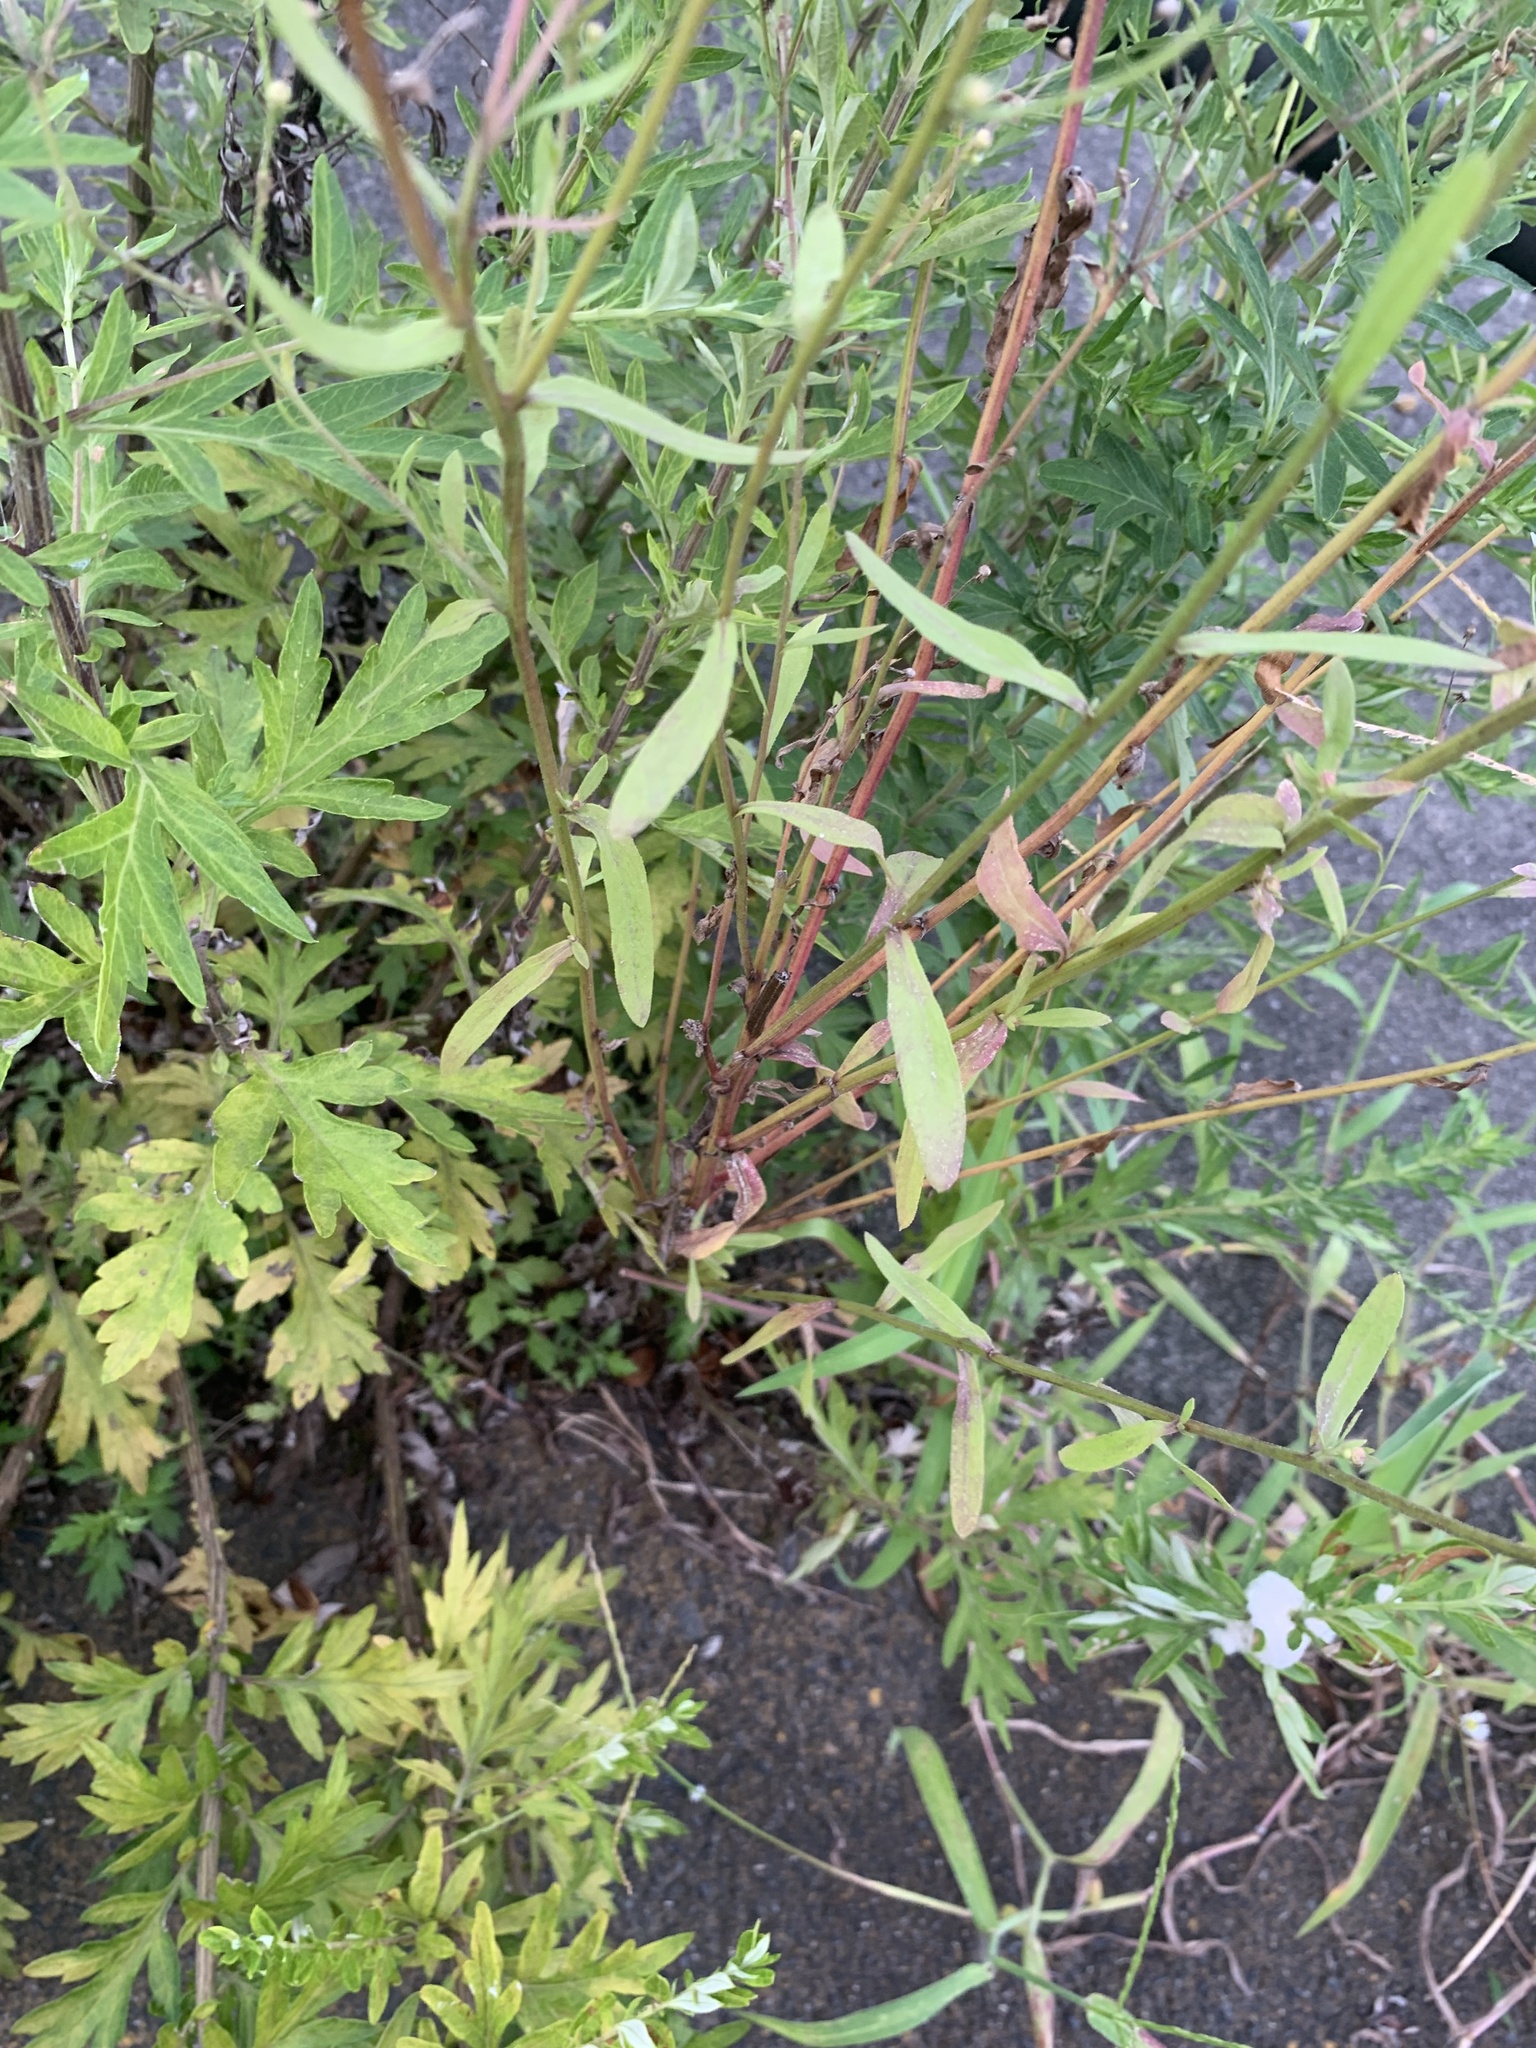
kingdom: Plantae
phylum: Tracheophyta
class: Magnoliopsida
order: Asterales
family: Asteraceae
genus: Erigeron
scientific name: Erigeron strigosus
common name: Common eastern fleabane
